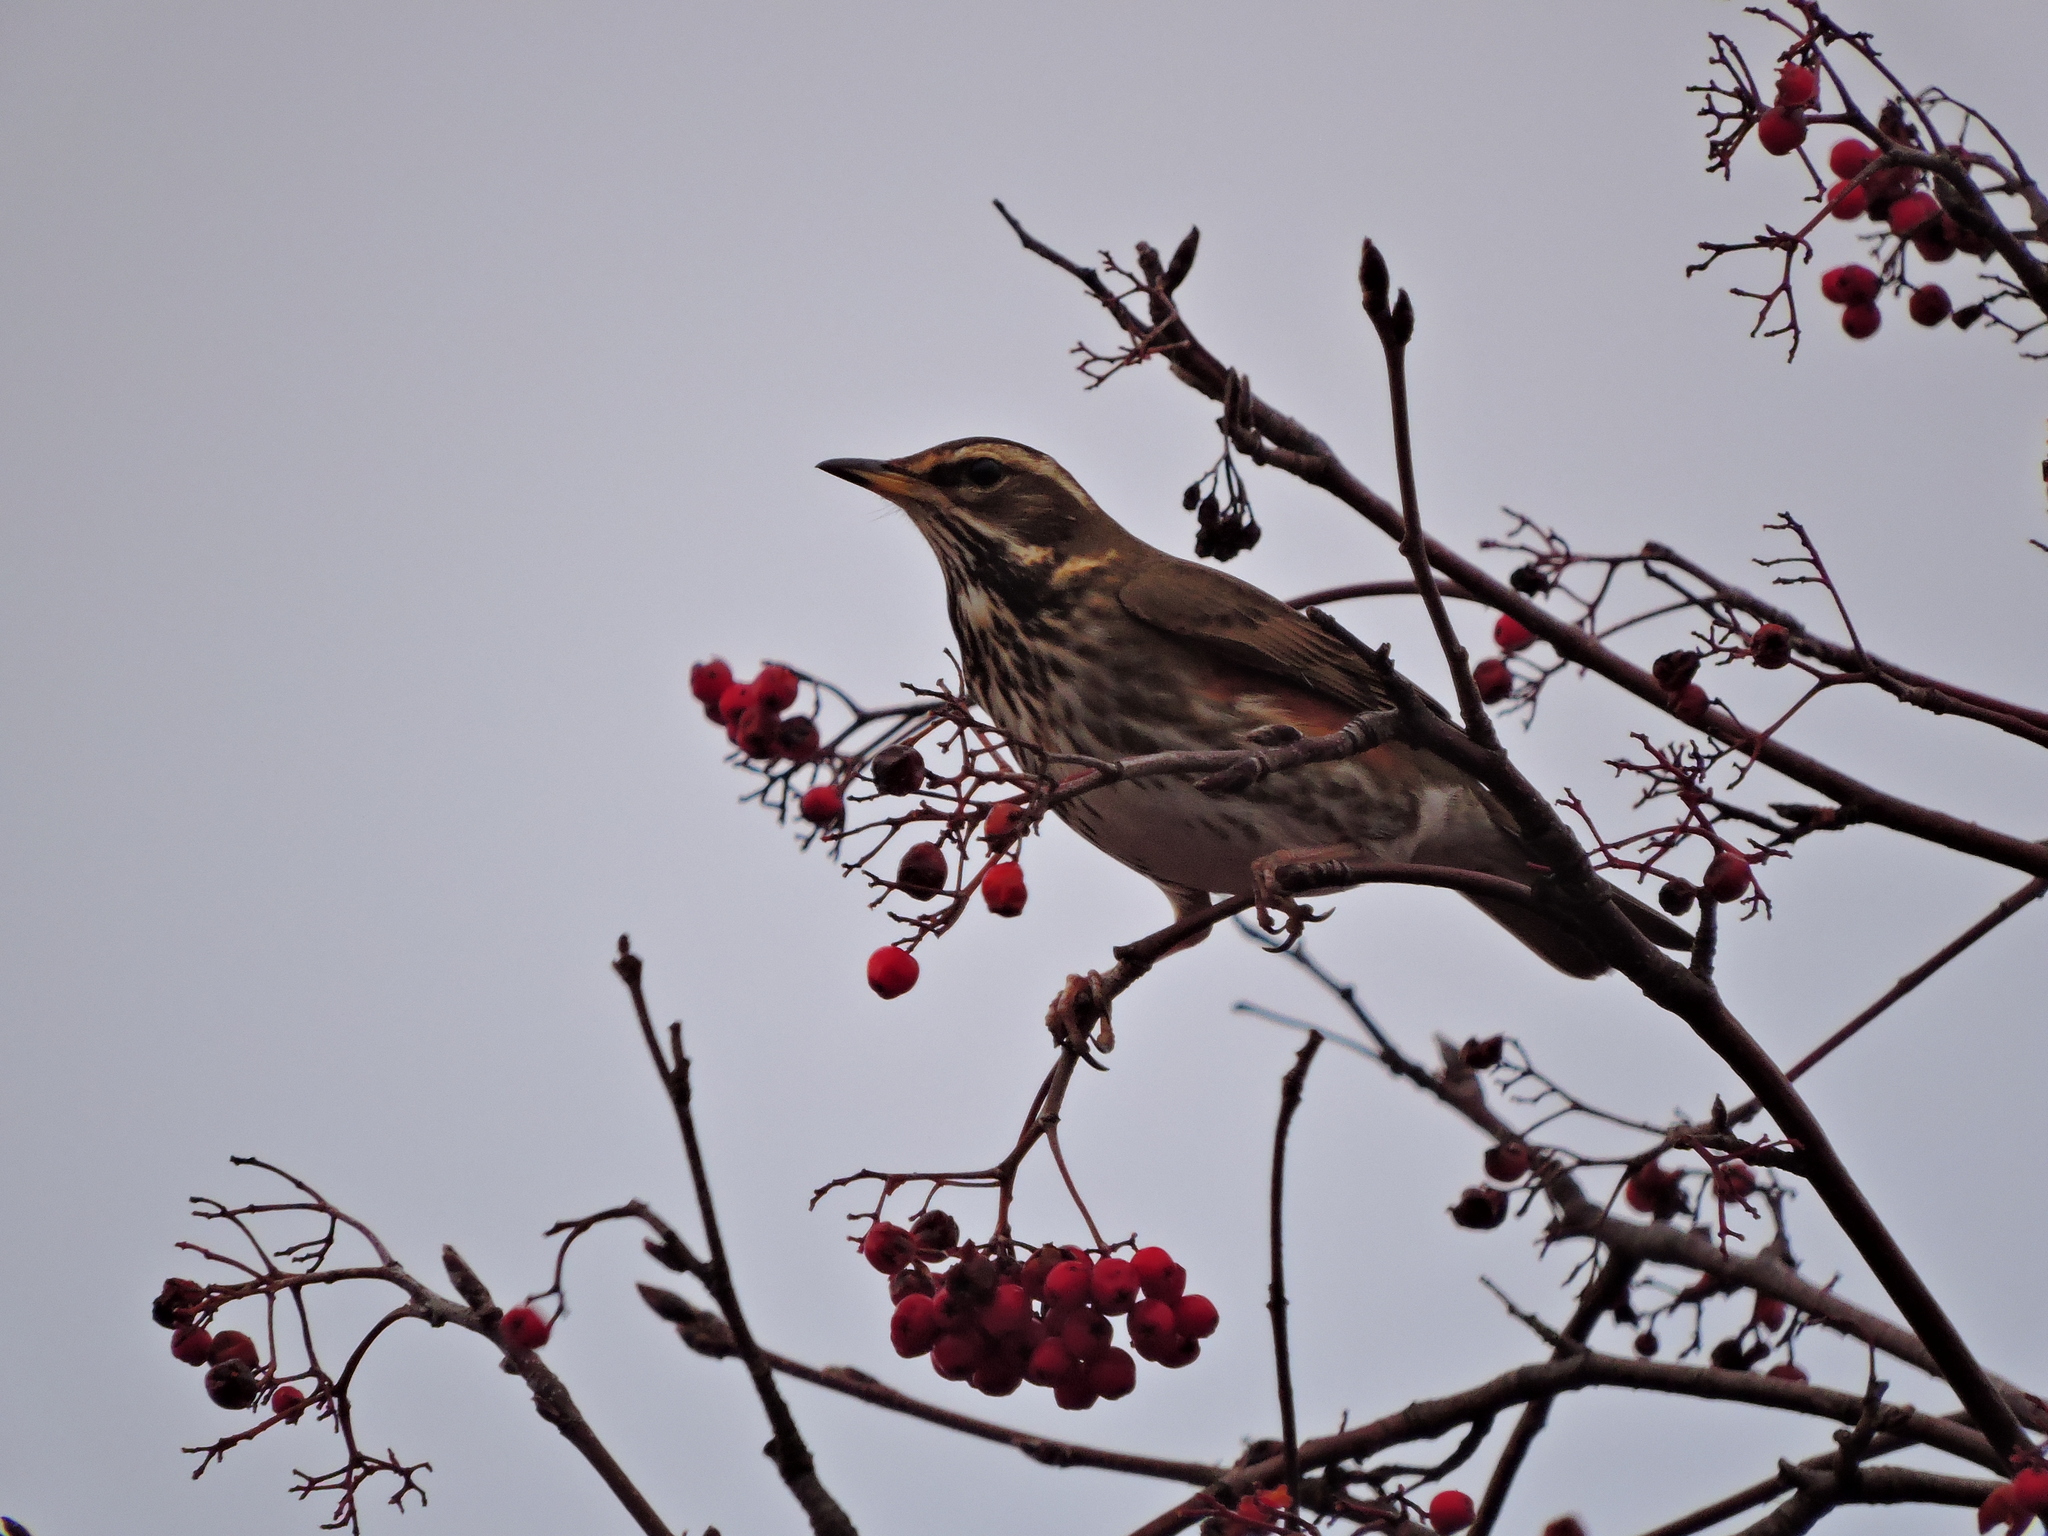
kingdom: Animalia
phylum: Chordata
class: Aves
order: Passeriformes
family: Turdidae
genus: Turdus
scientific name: Turdus iliacus
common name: Redwing
